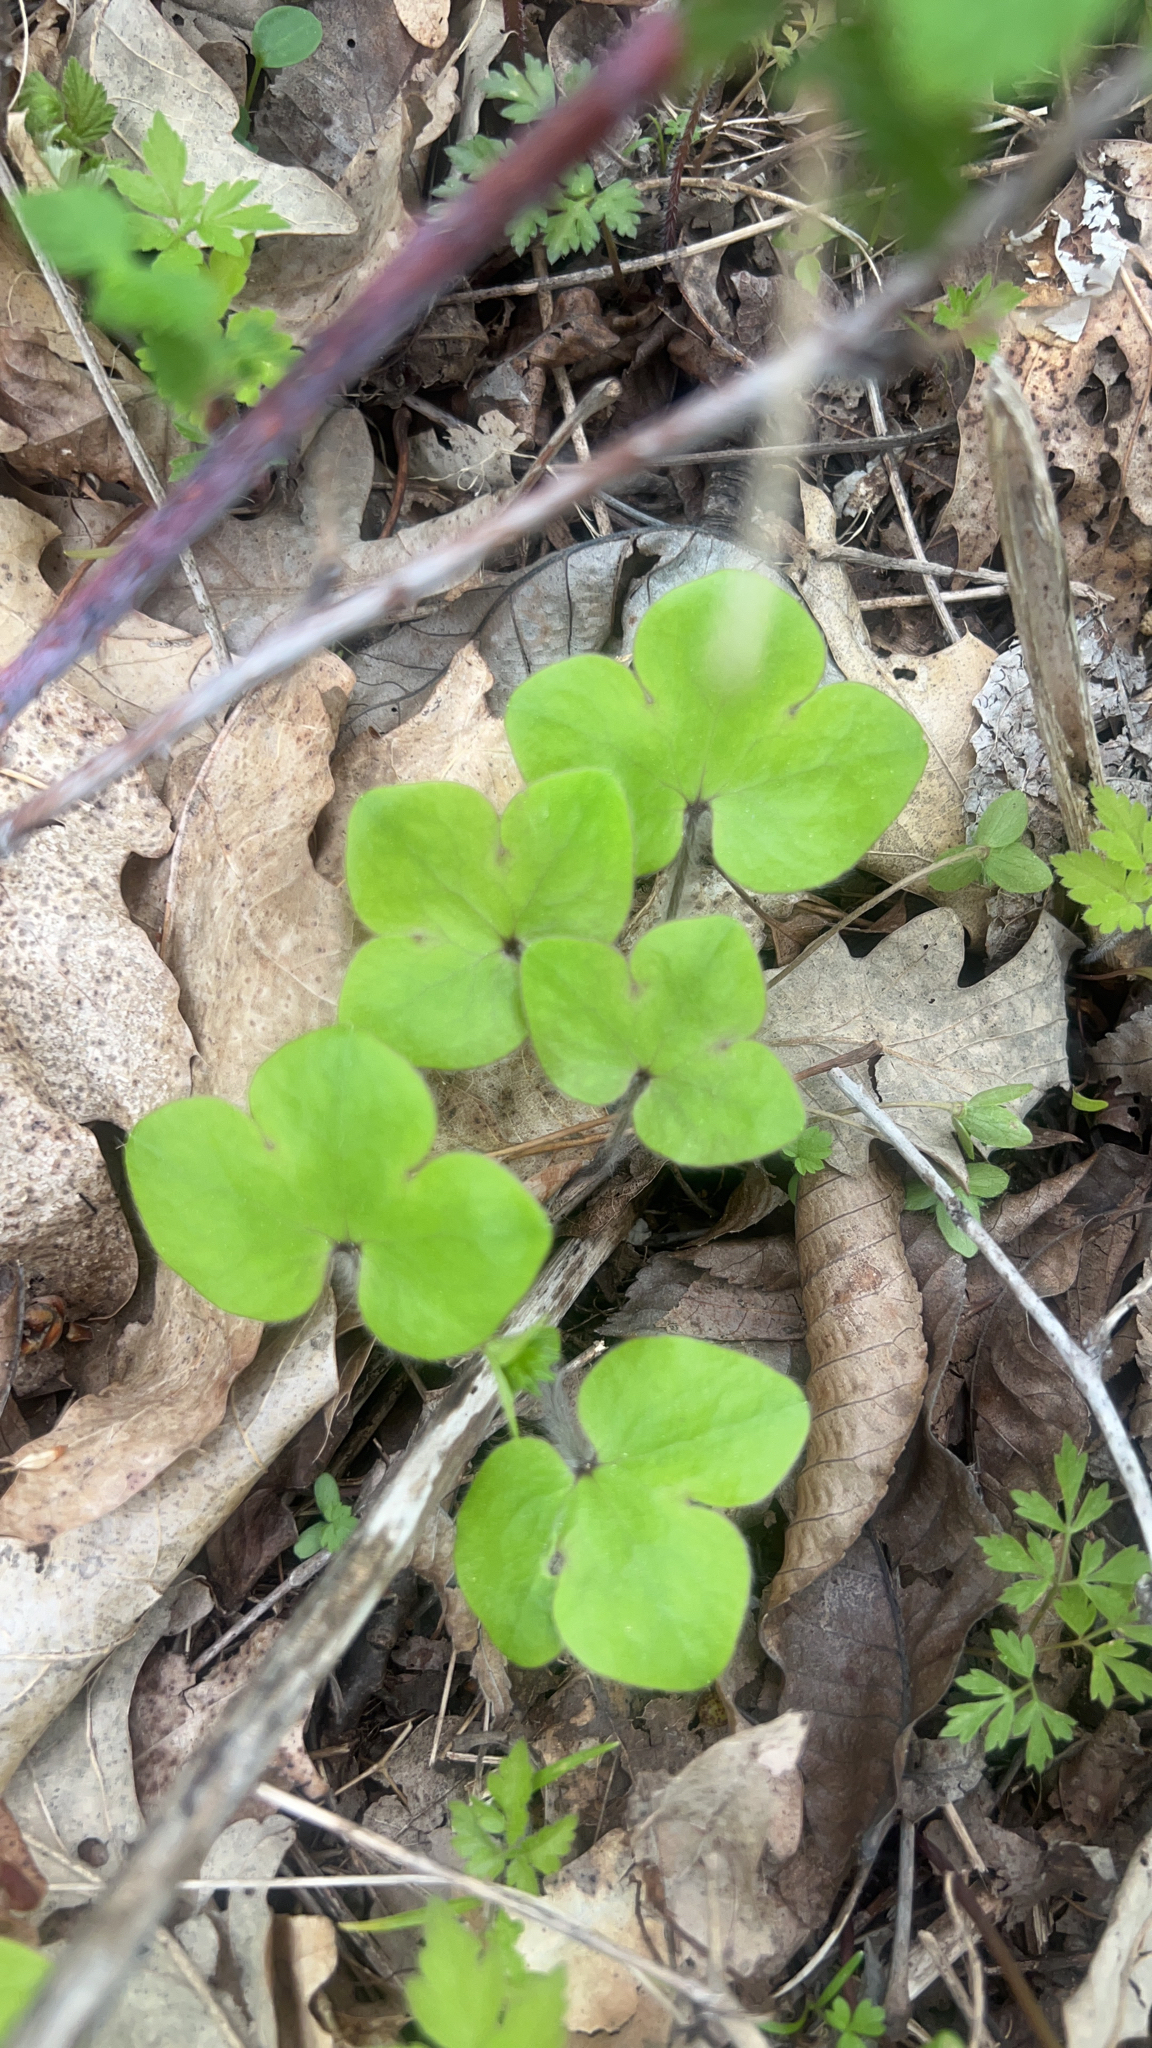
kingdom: Plantae
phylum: Tracheophyta
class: Magnoliopsida
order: Ranunculales
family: Ranunculaceae
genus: Hepatica
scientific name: Hepatica americana
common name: American hepatica
